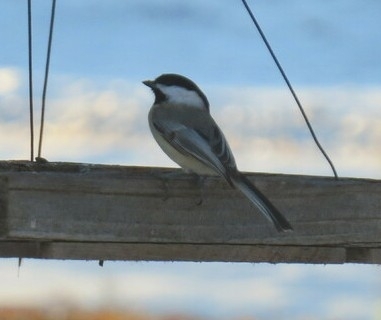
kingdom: Animalia
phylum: Chordata
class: Aves
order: Passeriformes
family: Paridae
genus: Poecile
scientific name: Poecile atricapillus
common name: Black-capped chickadee
